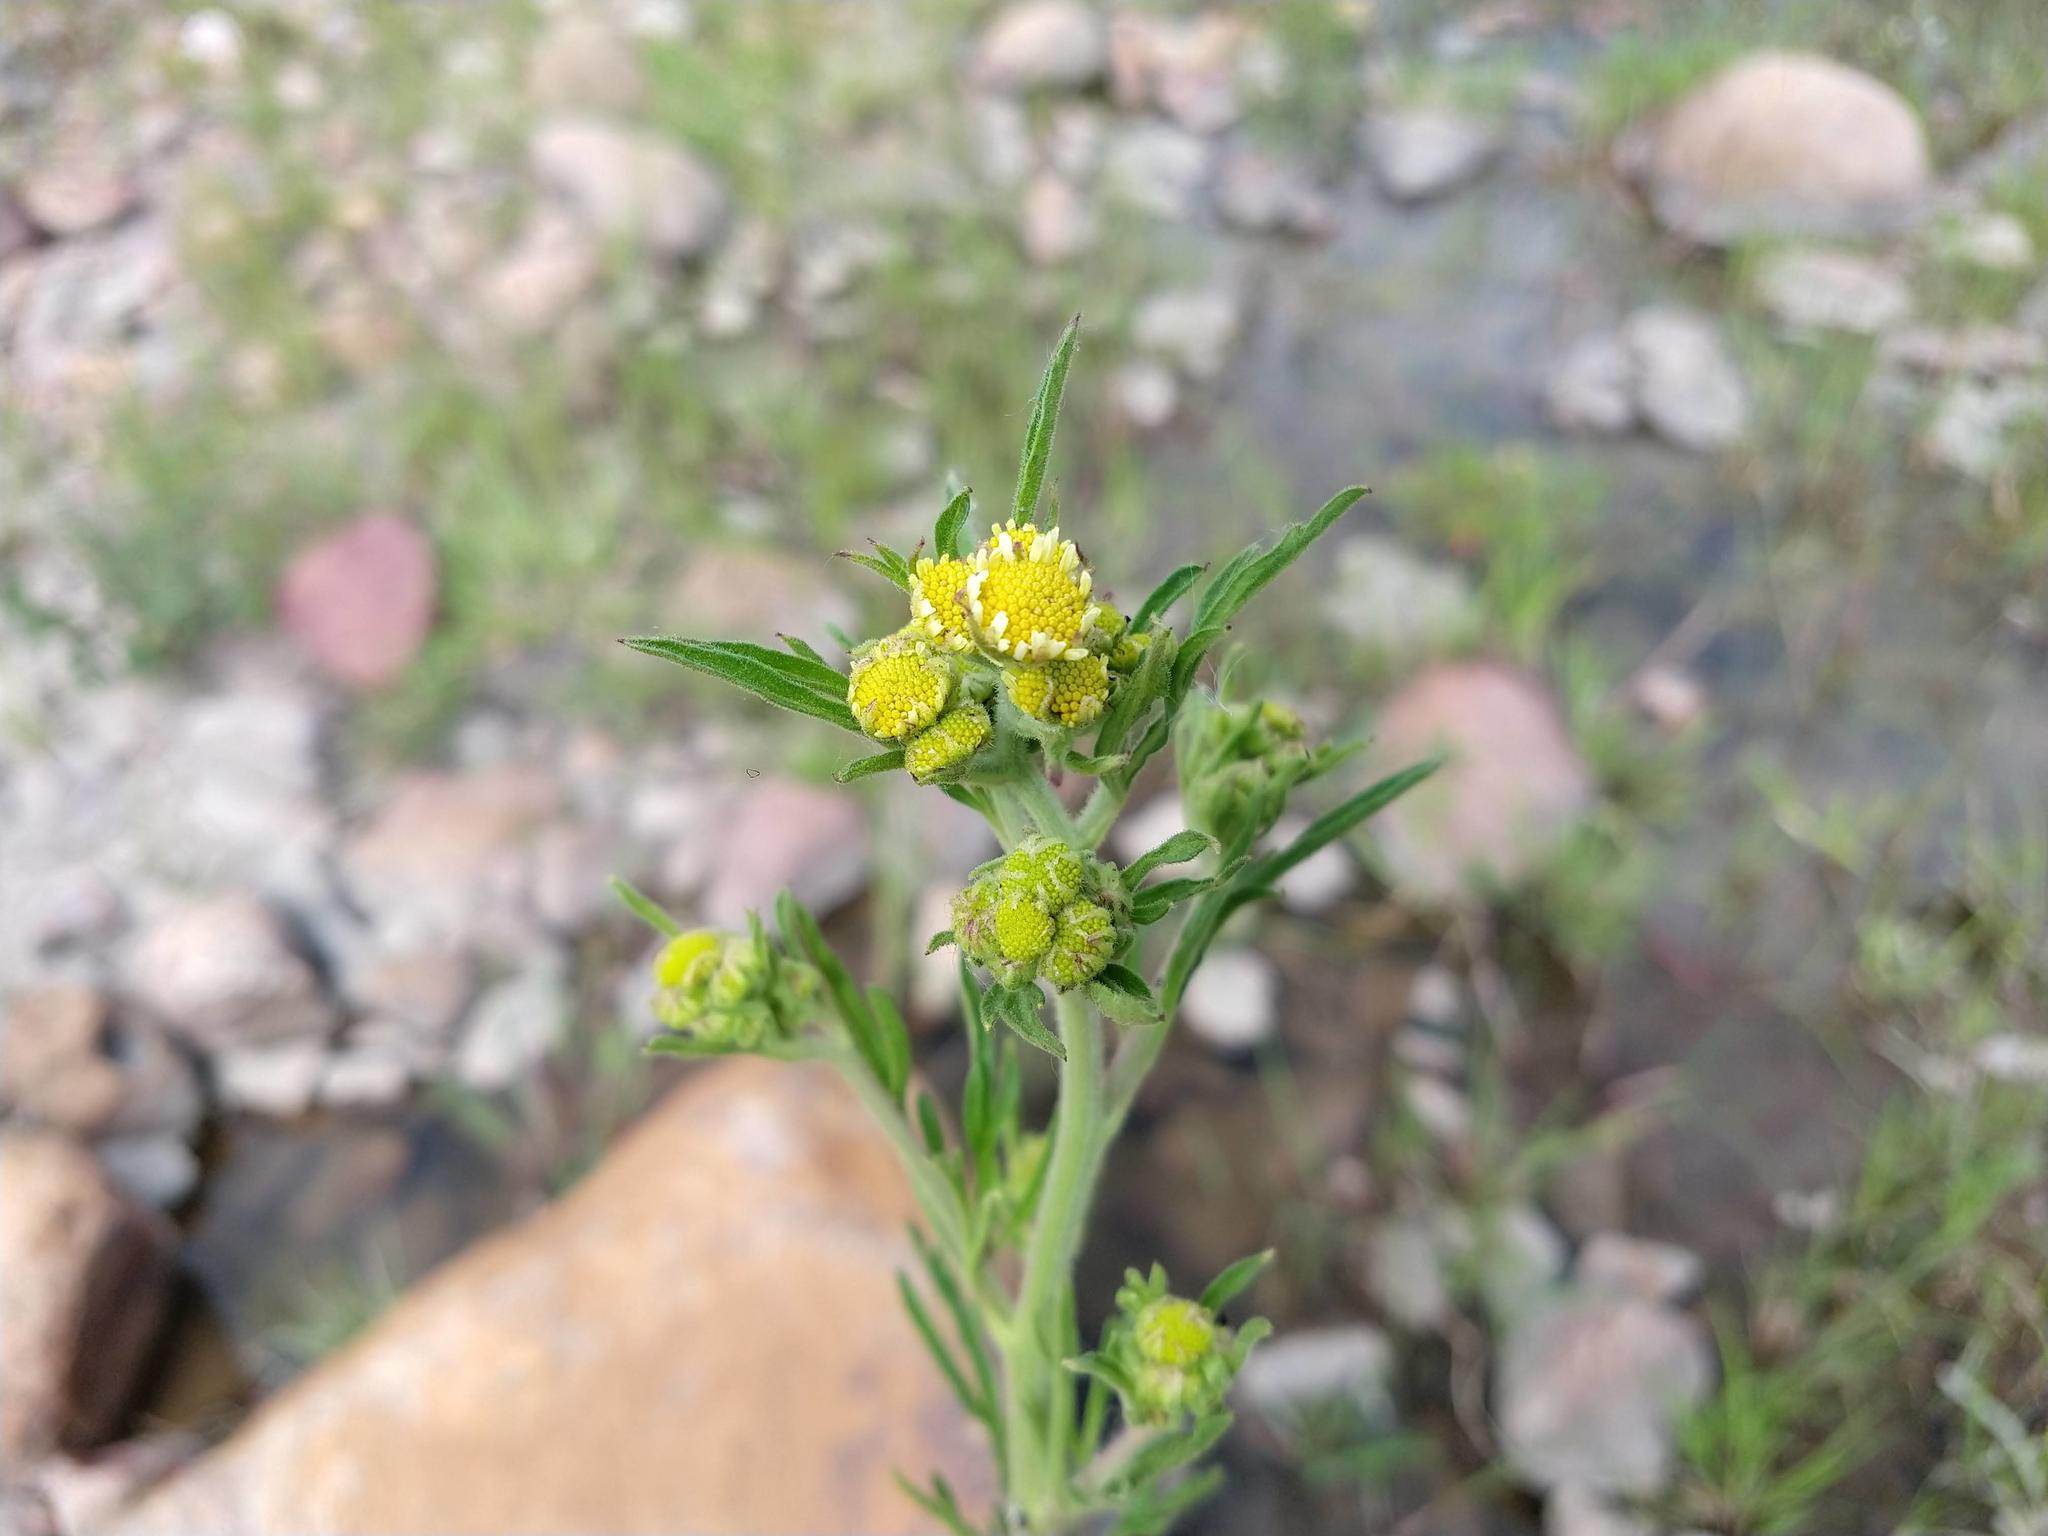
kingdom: Plantae
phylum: Tracheophyta
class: Magnoliopsida
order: Asterales
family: Asteraceae
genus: Hymenothrix
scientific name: Hymenothrix glandulopubescens
